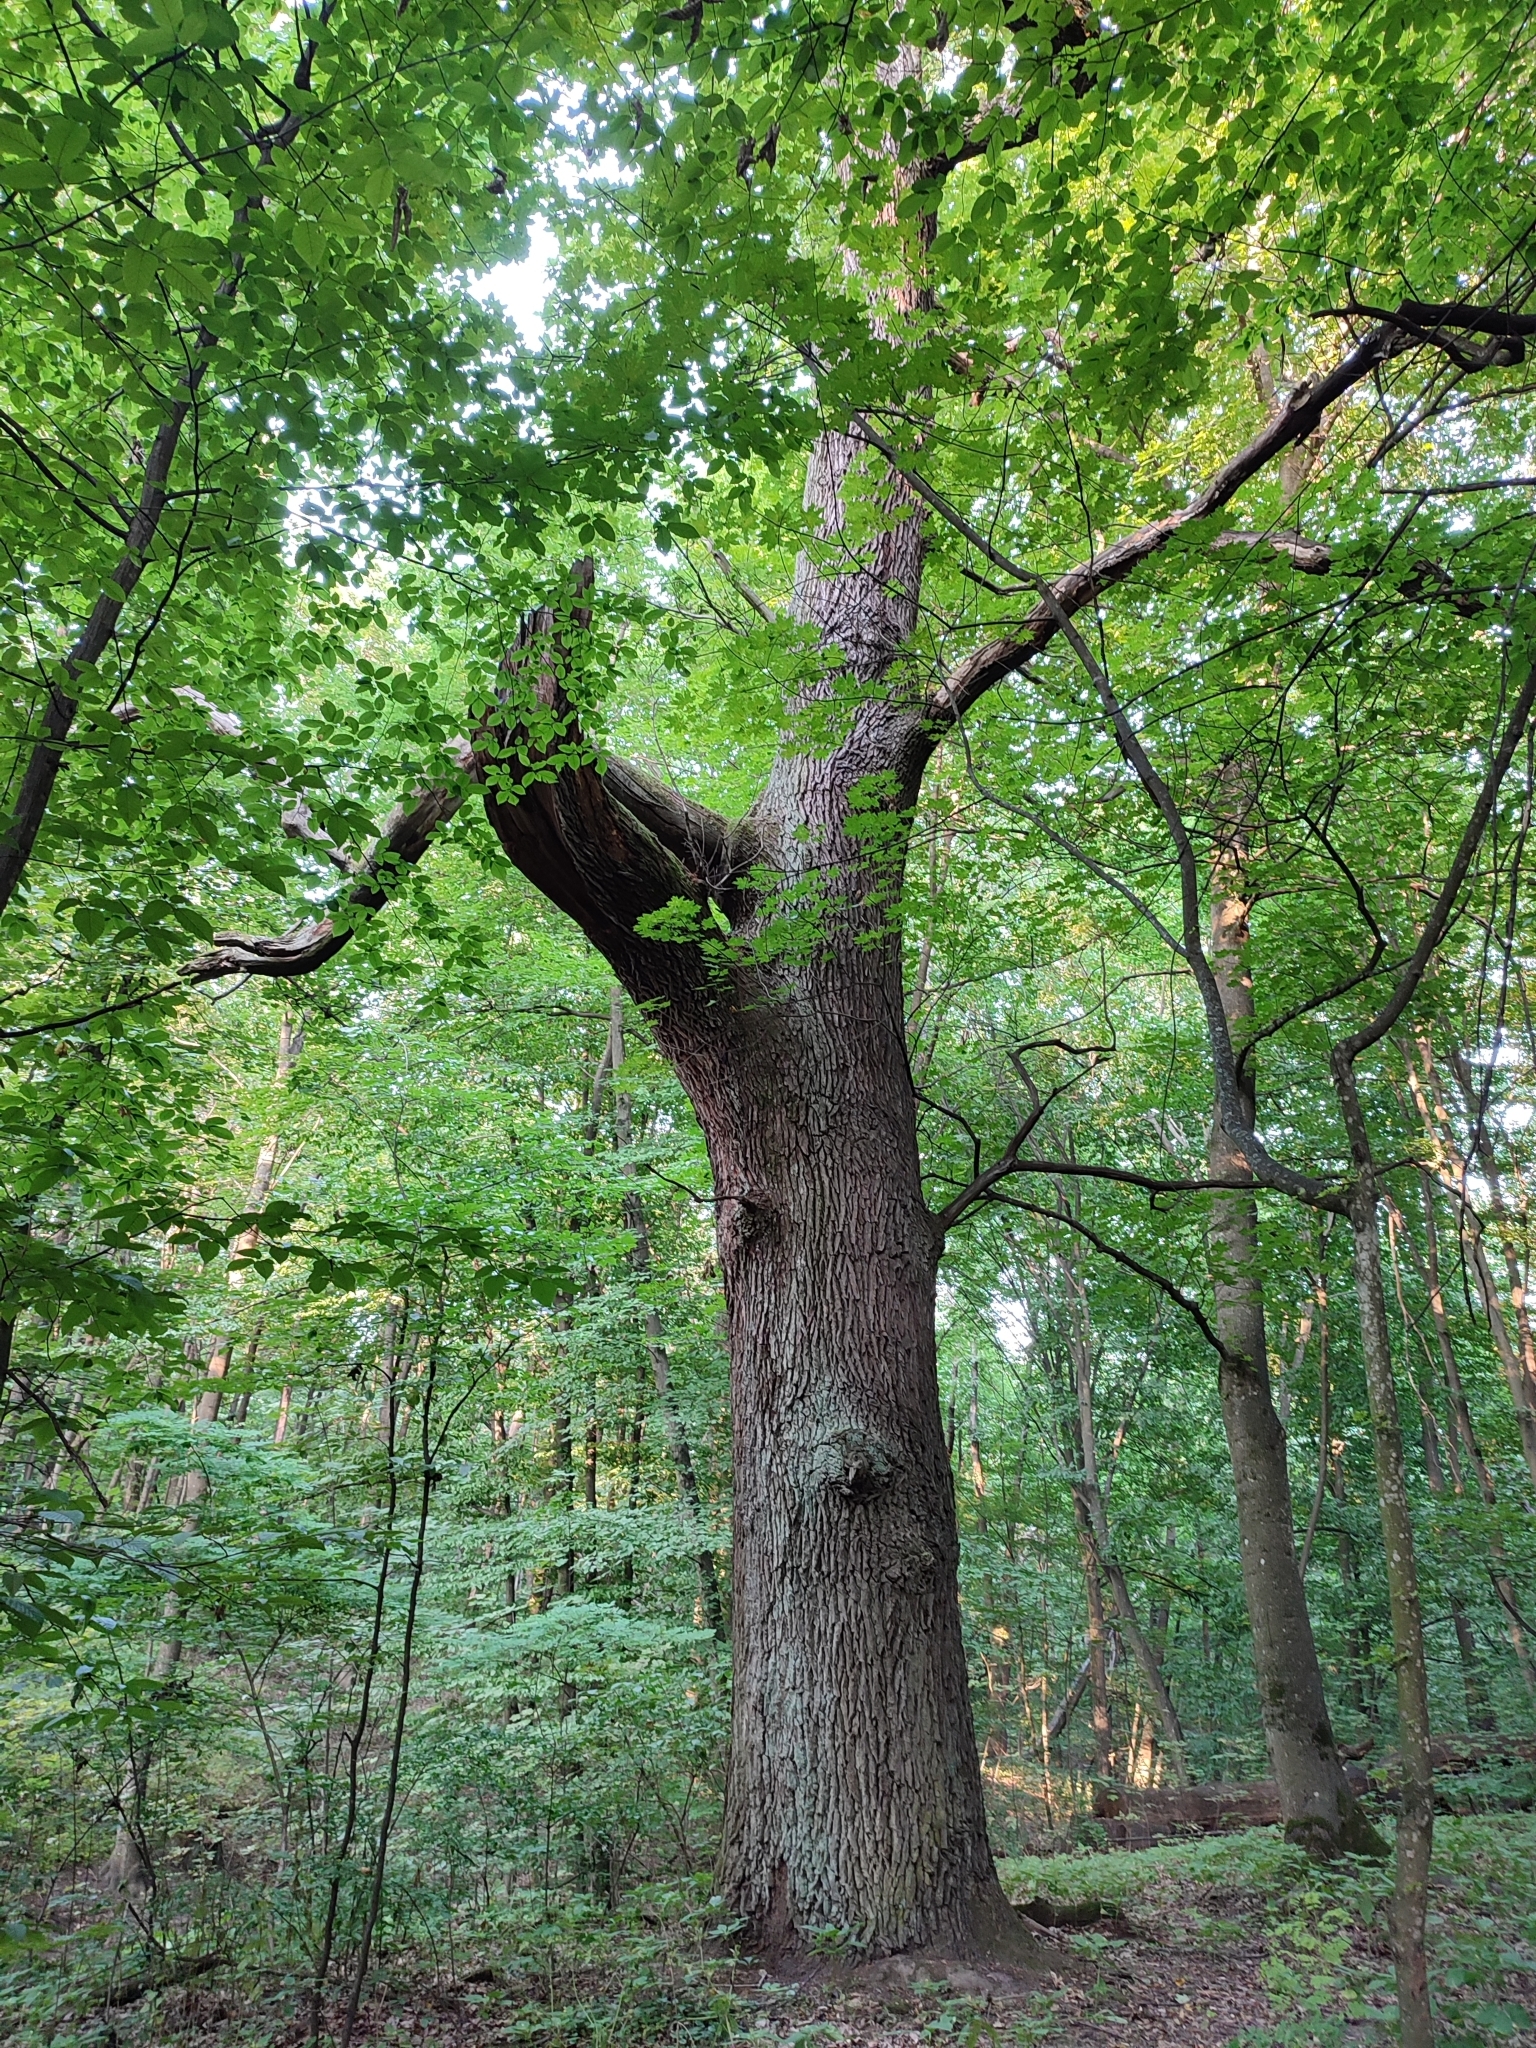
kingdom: Plantae
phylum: Tracheophyta
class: Magnoliopsida
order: Fagales
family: Fagaceae
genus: Quercus
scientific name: Quercus robur
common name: Pedunculate oak
